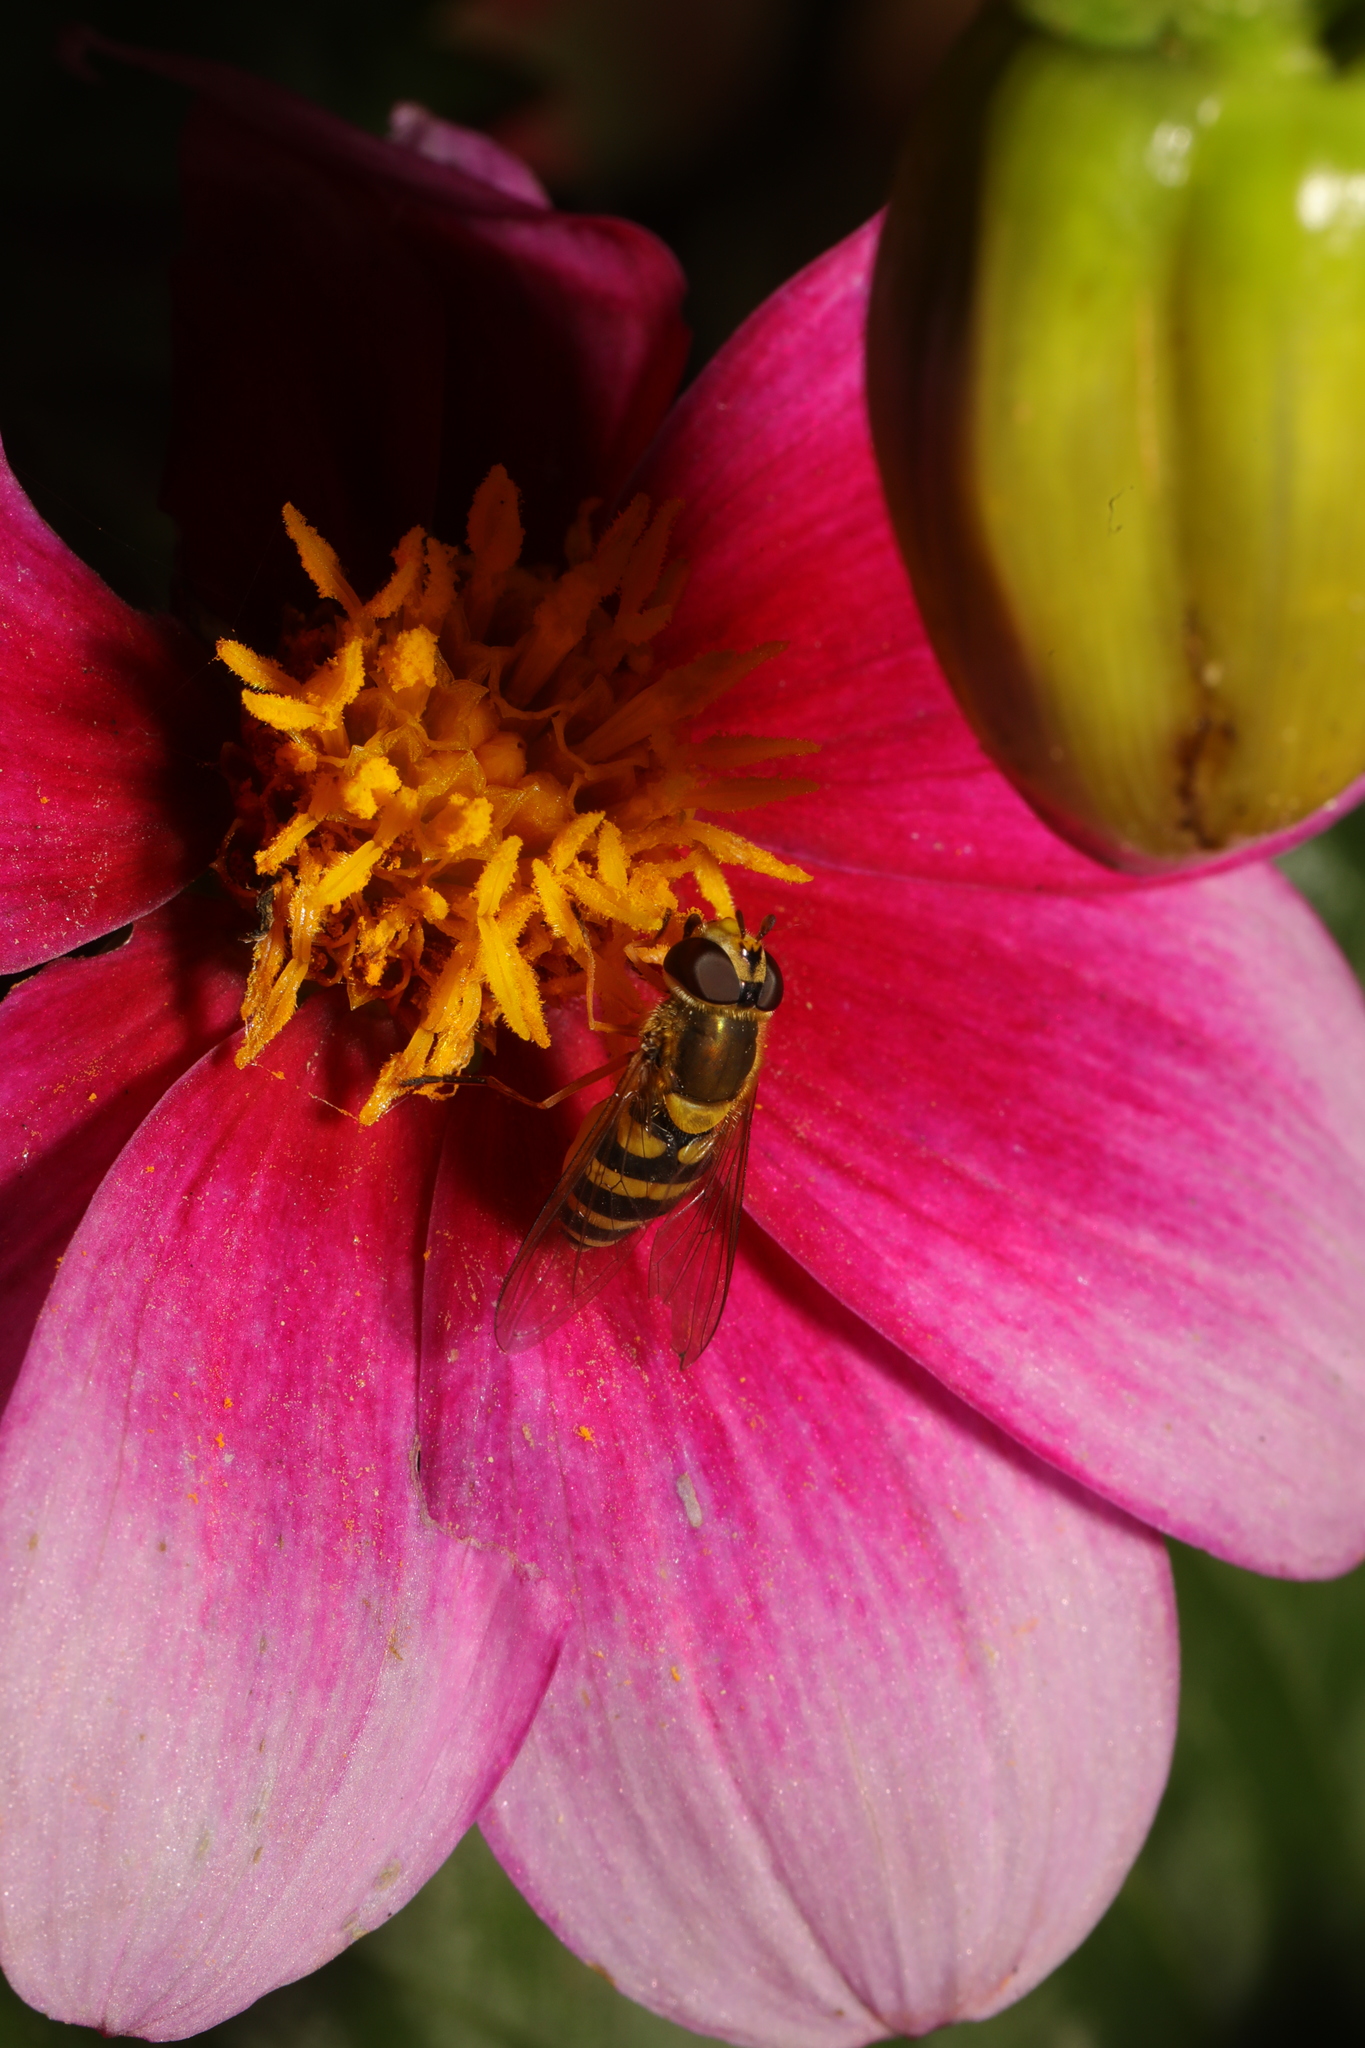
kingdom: Animalia
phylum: Arthropoda
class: Insecta
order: Diptera
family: Syrphidae
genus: Syrphus
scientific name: Syrphus ribesii
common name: Common flower fly
